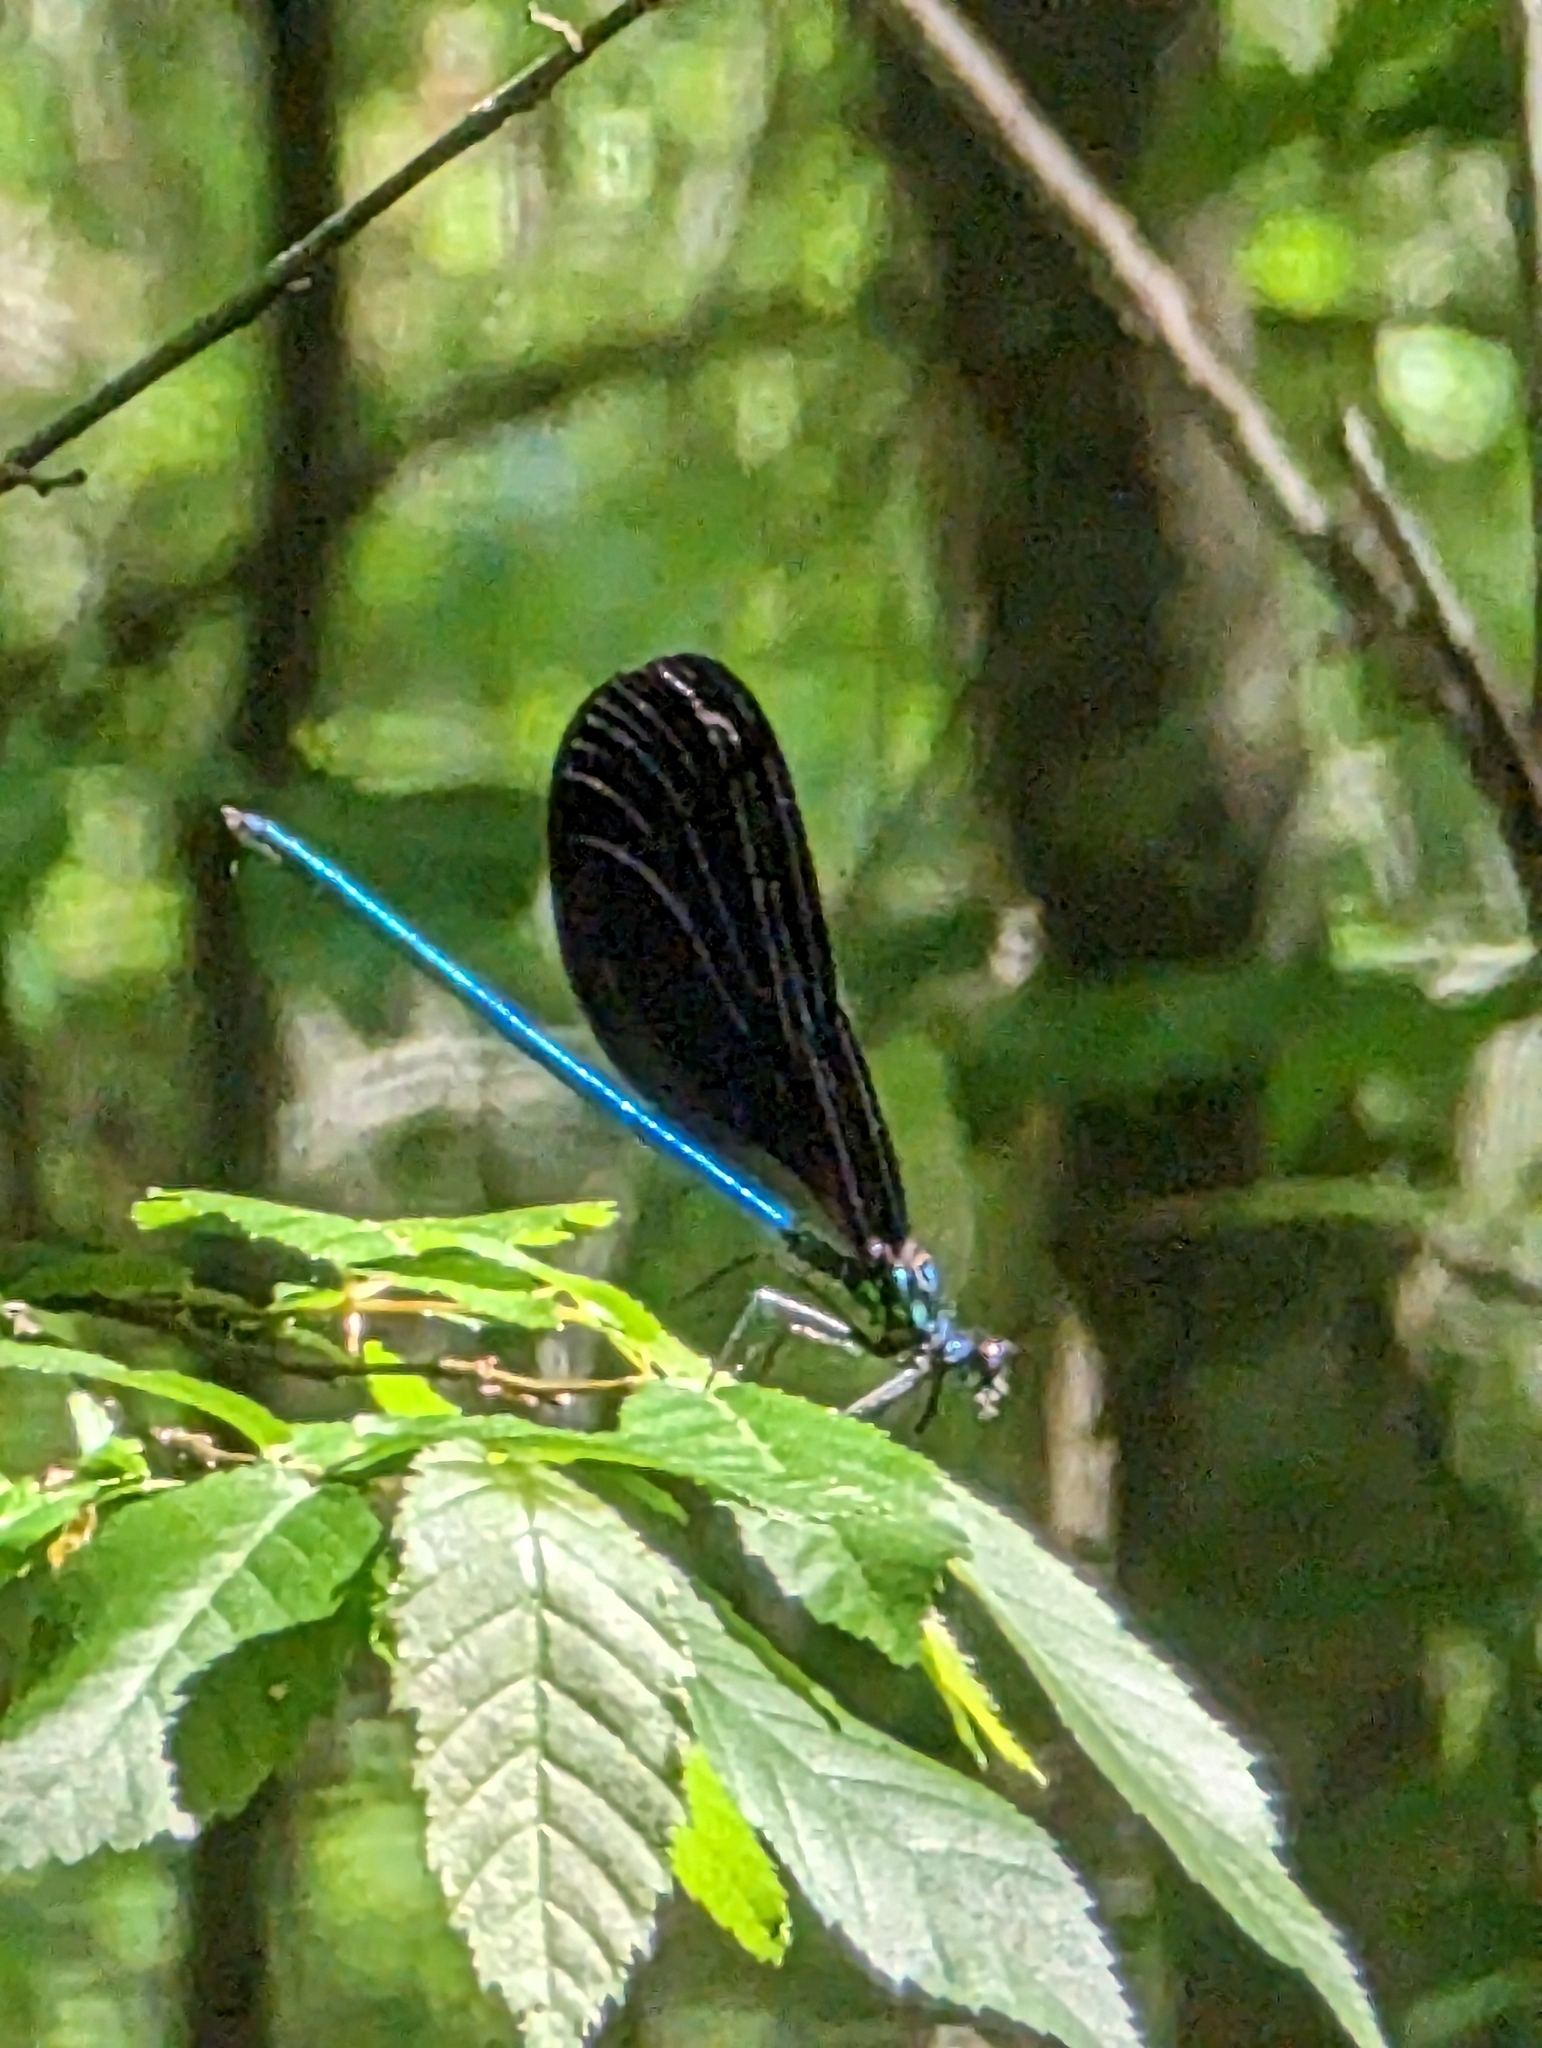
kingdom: Animalia
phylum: Arthropoda
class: Insecta
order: Odonata
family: Calopterygidae
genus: Calopteryx
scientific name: Calopteryx maculata
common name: Ebony jewelwing
